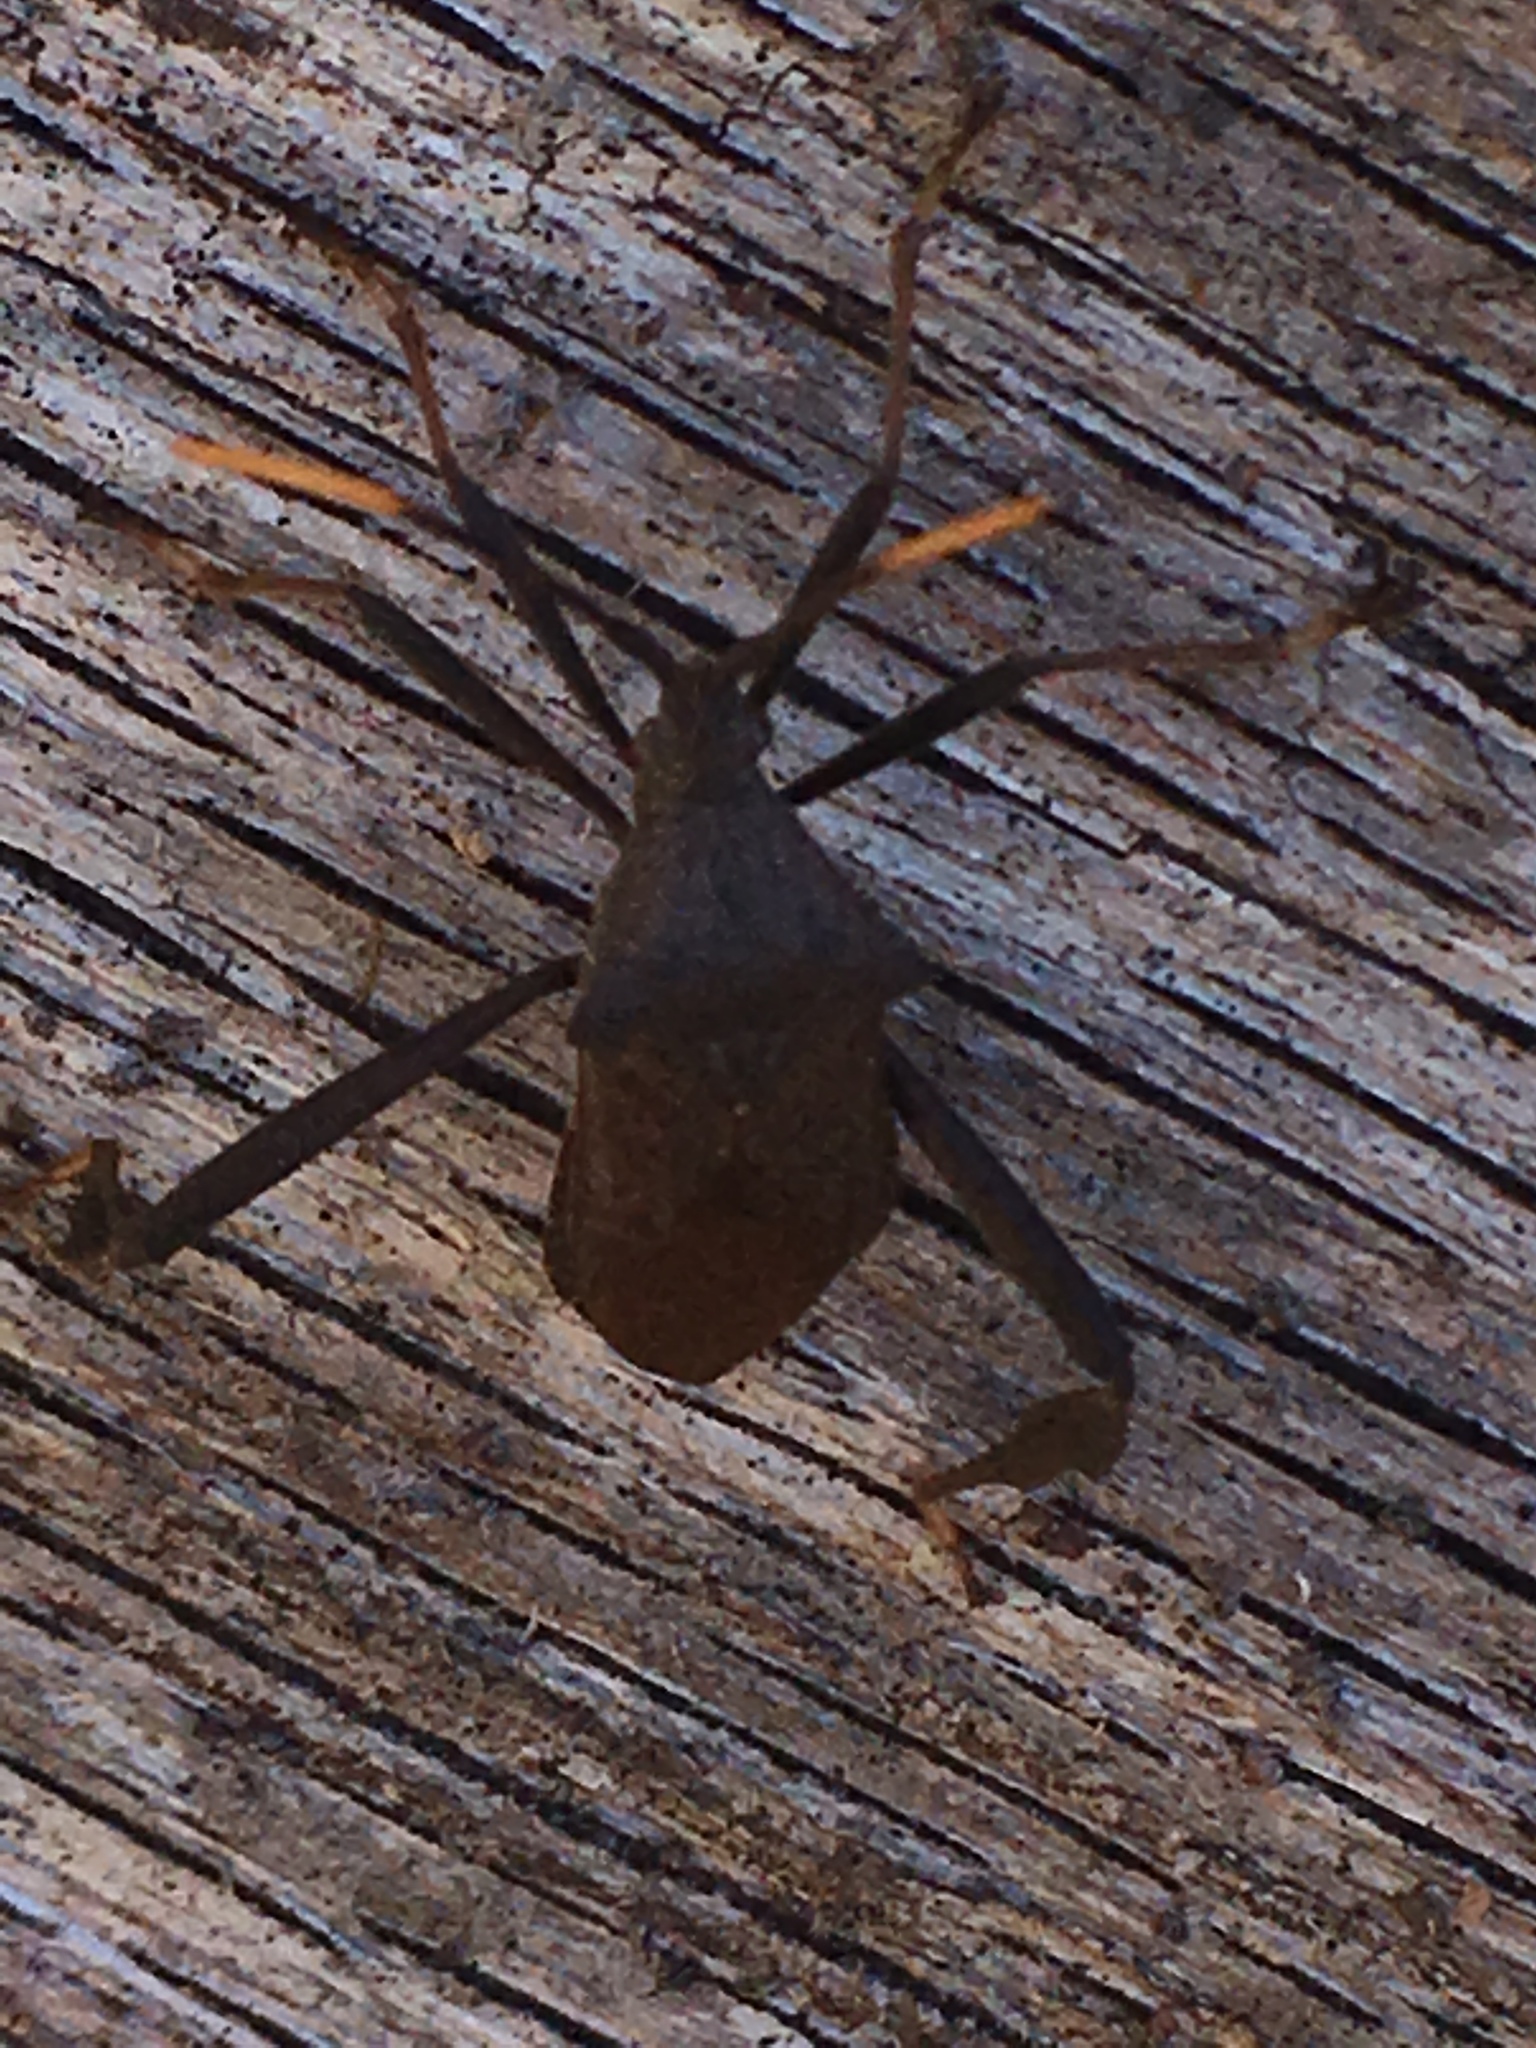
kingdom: Animalia
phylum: Arthropoda
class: Insecta
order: Hemiptera
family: Coreidae
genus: Acanthocephala
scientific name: Acanthocephala terminalis
